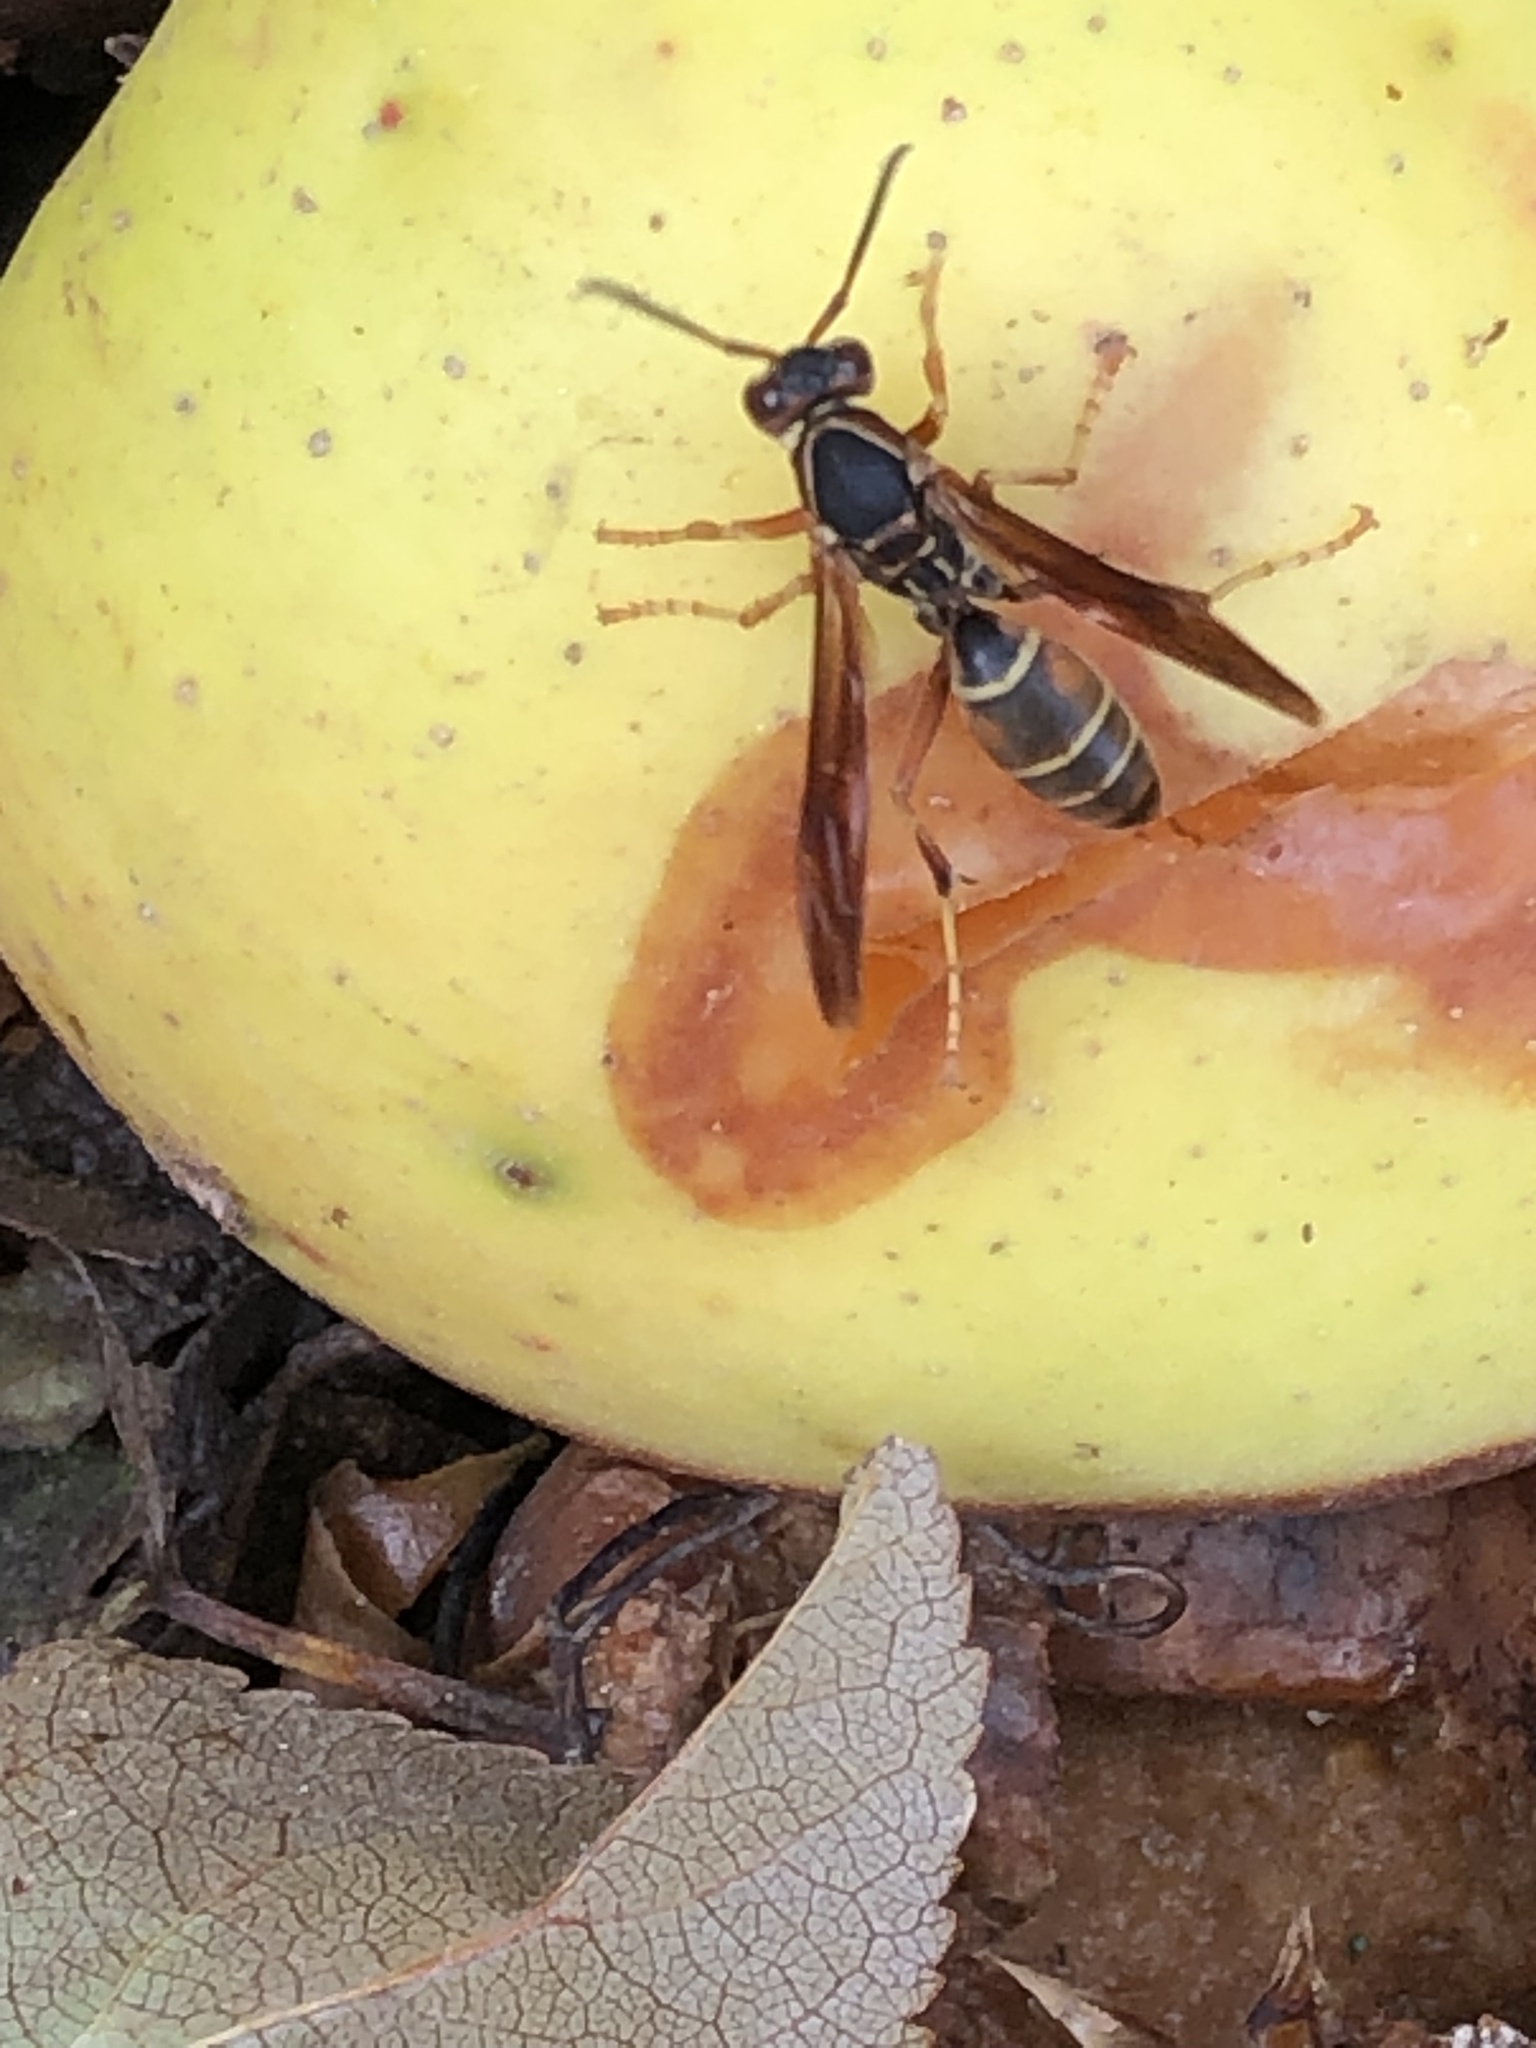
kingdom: Animalia
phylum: Arthropoda
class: Insecta
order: Hymenoptera
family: Eumenidae
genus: Polistes
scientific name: Polistes fuscatus
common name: Dark paper wasp
